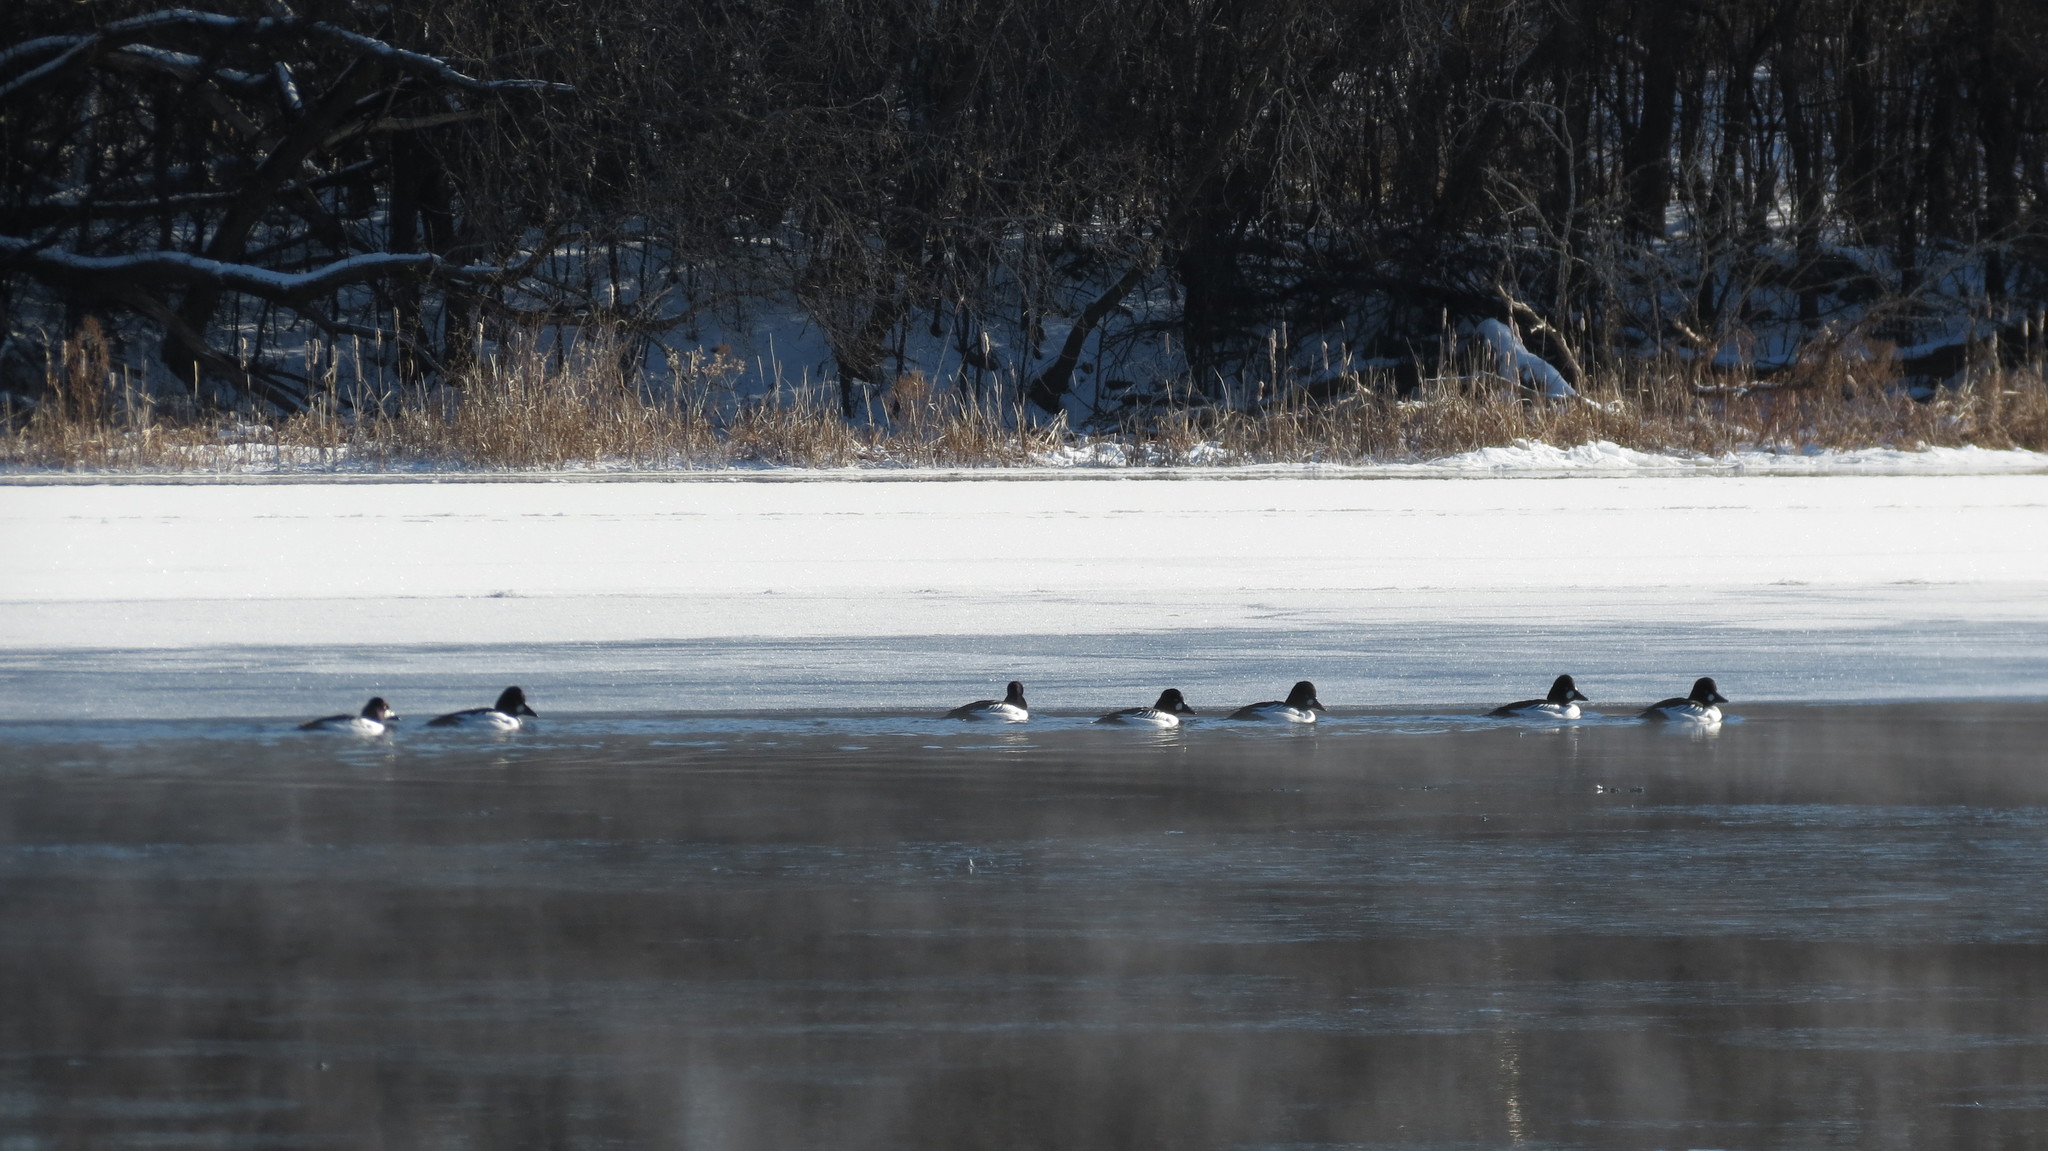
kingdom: Animalia
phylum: Chordata
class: Aves
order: Anseriformes
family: Anatidae
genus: Bucephala
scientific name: Bucephala clangula
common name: Common goldeneye
